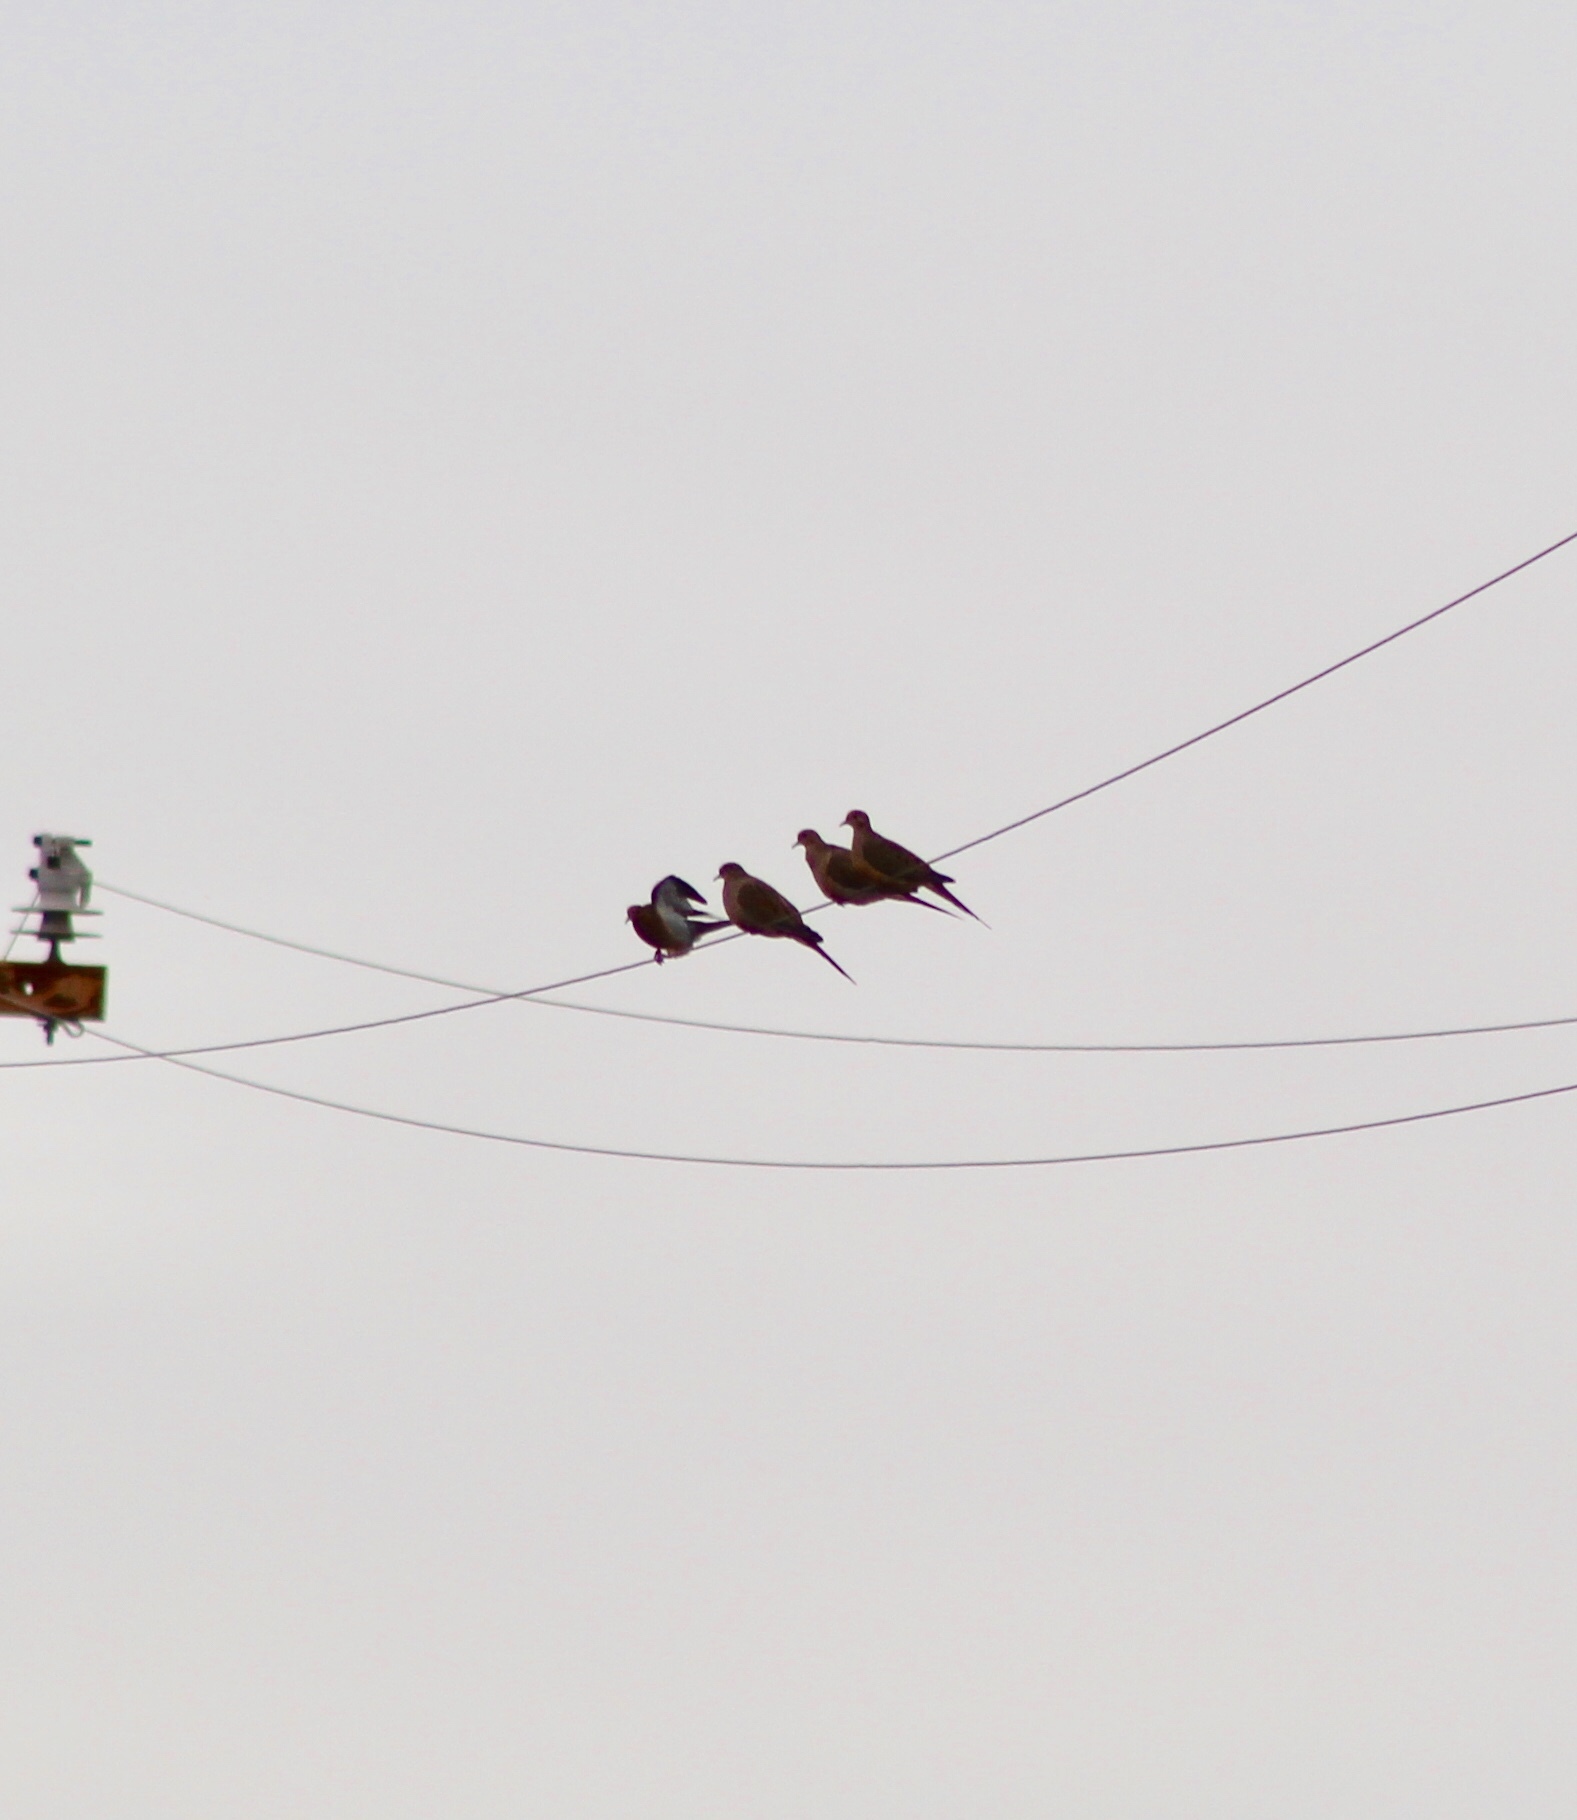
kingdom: Animalia
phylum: Chordata
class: Aves
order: Columbiformes
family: Columbidae
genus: Zenaida
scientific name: Zenaida macroura
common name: Mourning dove
